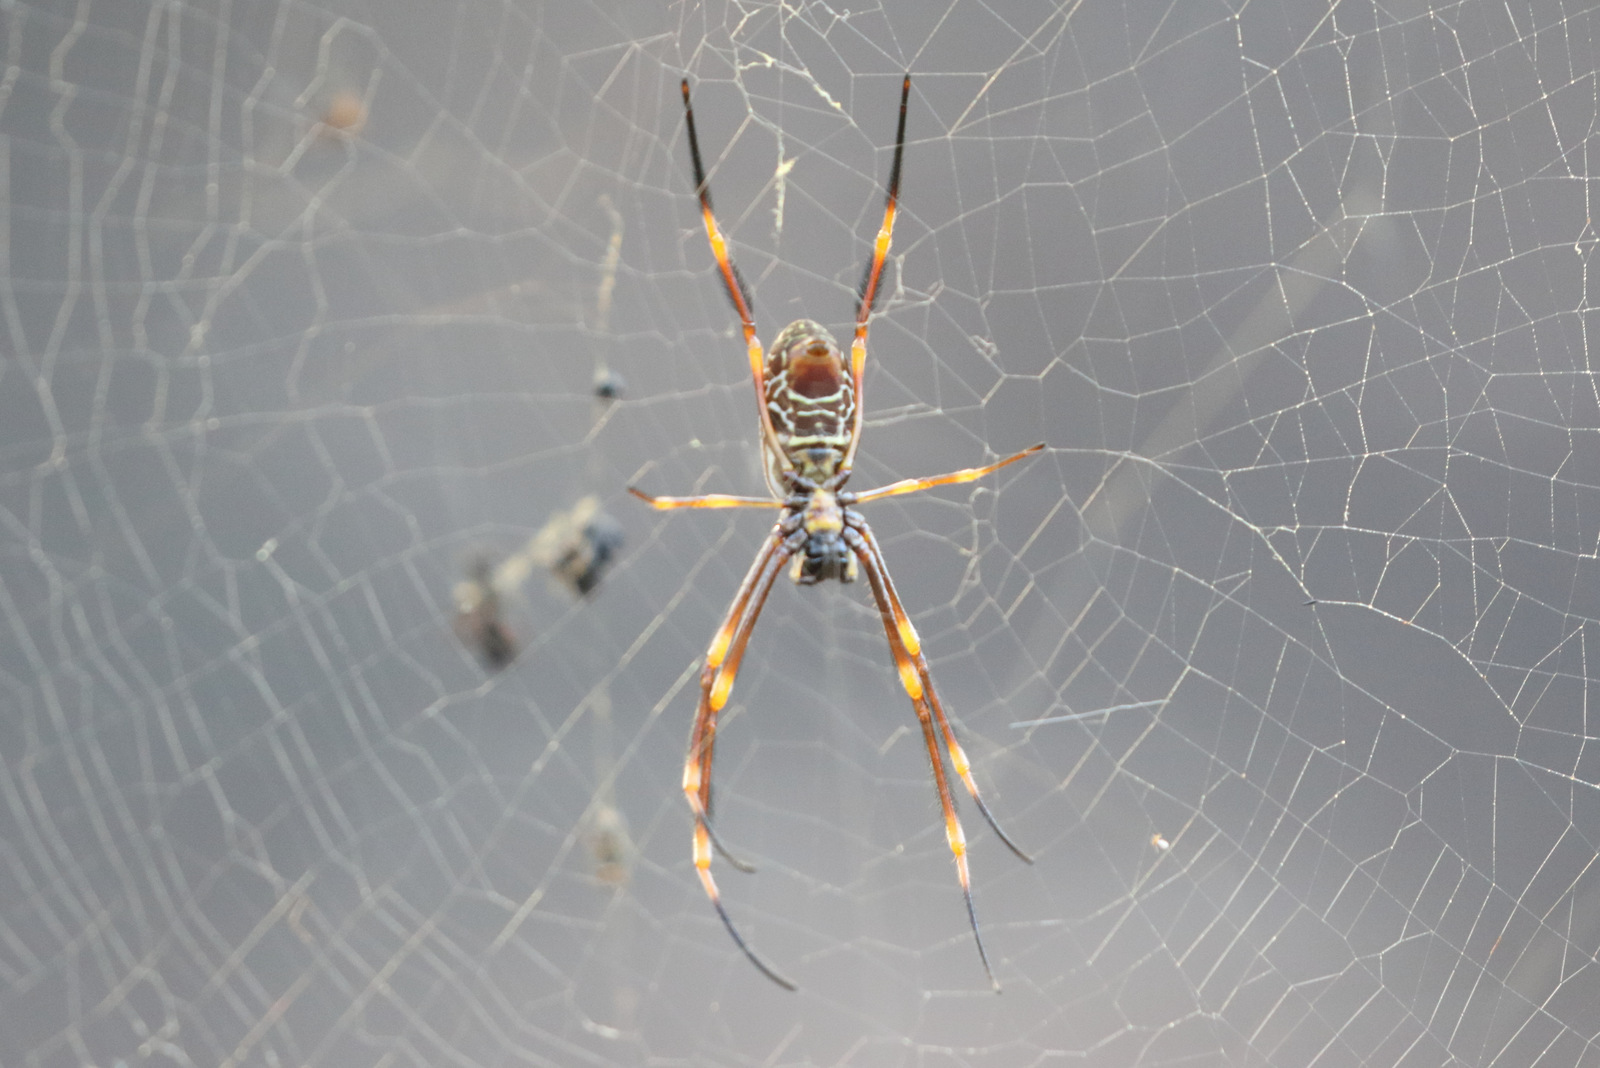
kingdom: Animalia
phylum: Arthropoda
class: Arachnida
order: Araneae
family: Araneidae
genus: Trichonephila
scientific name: Trichonephila plumipes
